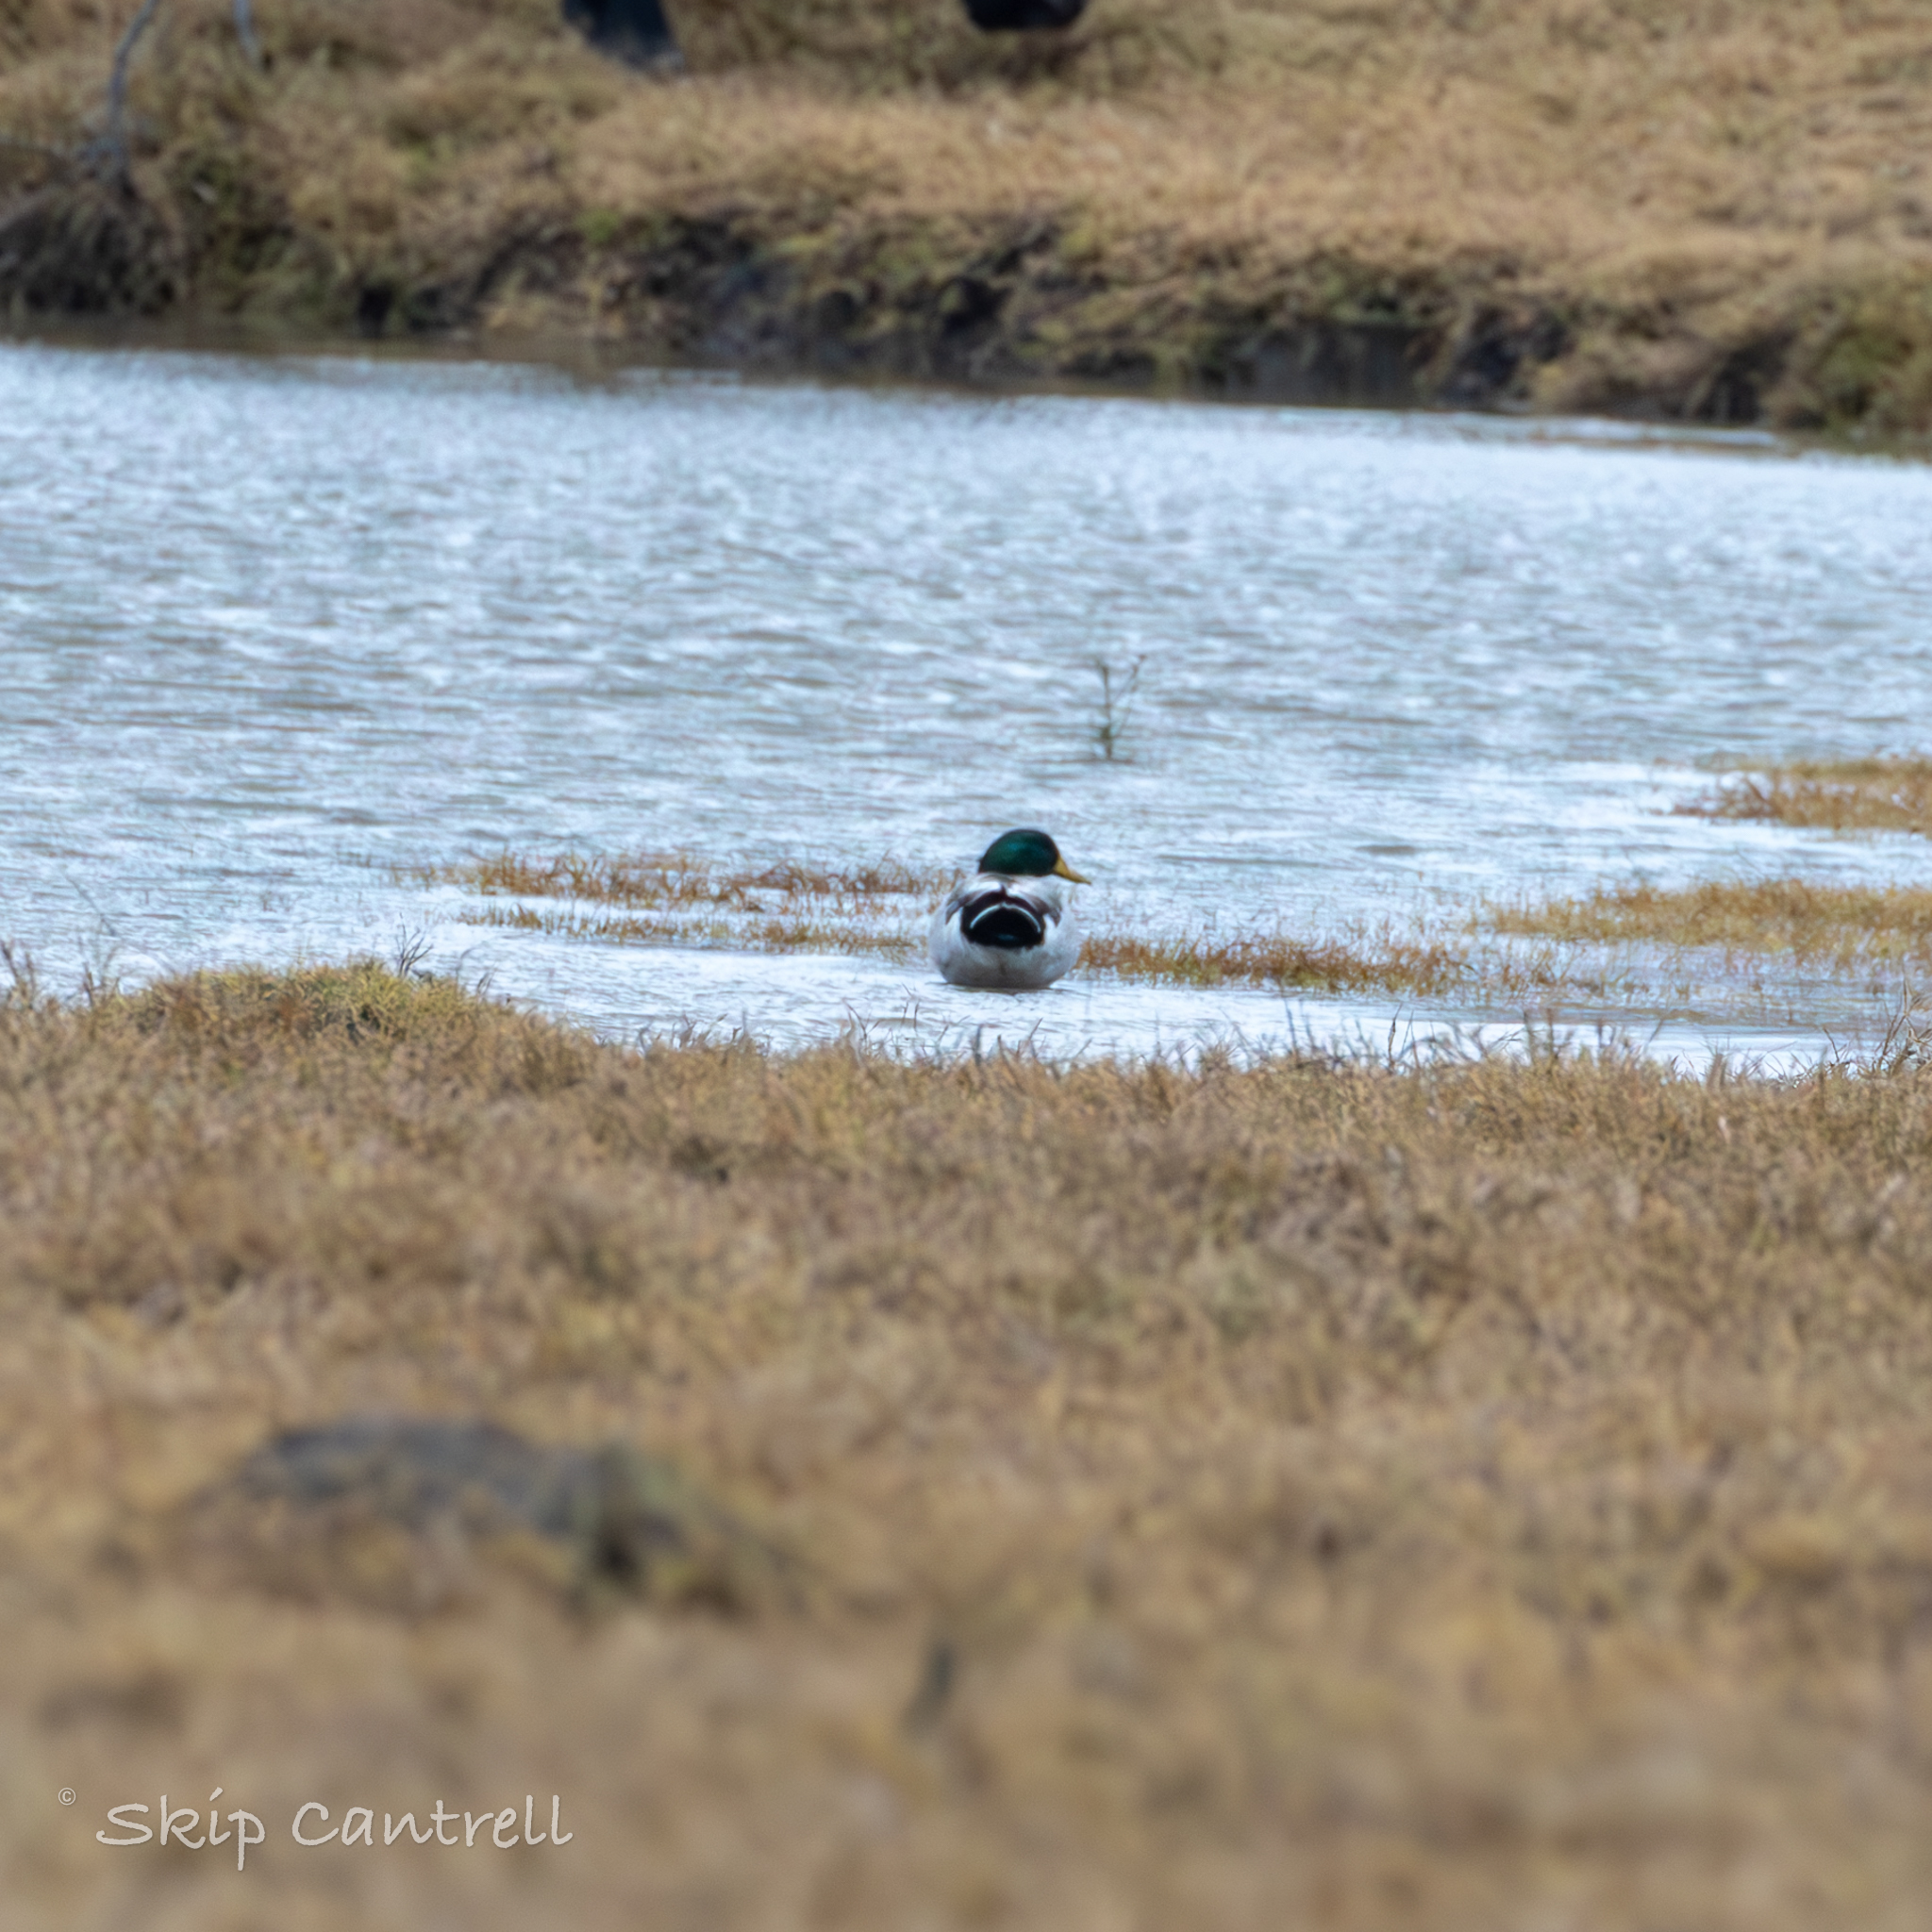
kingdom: Animalia
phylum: Chordata
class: Aves
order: Anseriformes
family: Anatidae
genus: Anas
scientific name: Anas platyrhynchos
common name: Mallard
